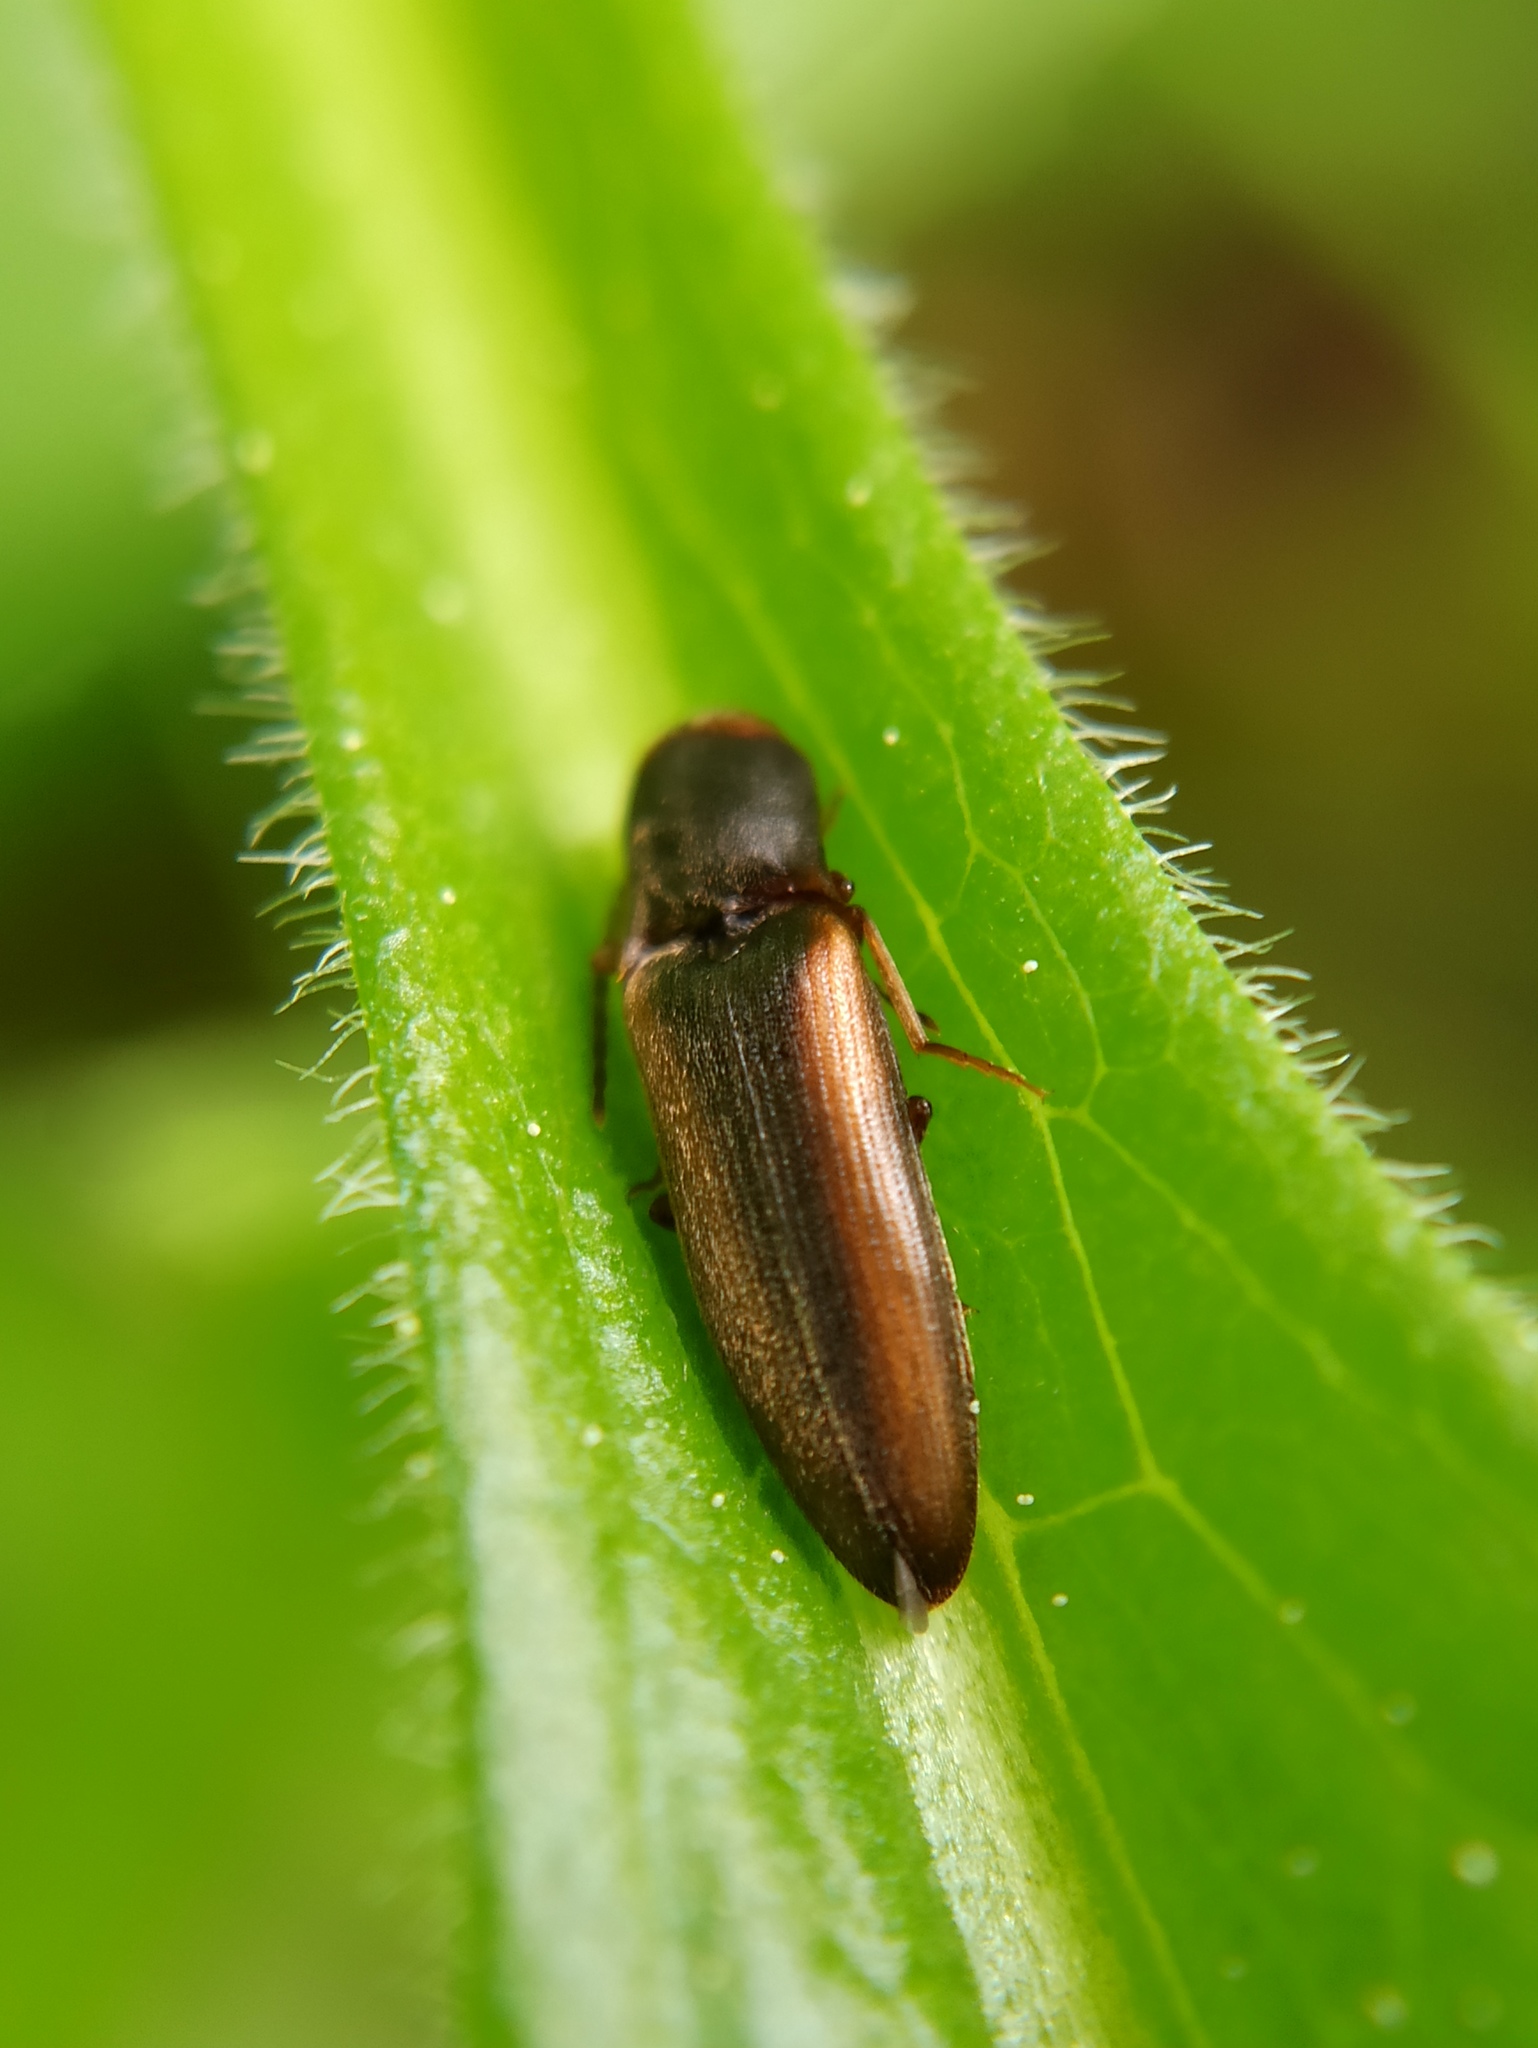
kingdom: Animalia
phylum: Arthropoda
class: Insecta
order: Coleoptera
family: Elateridae
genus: Dalopius
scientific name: Dalopius marginatus
